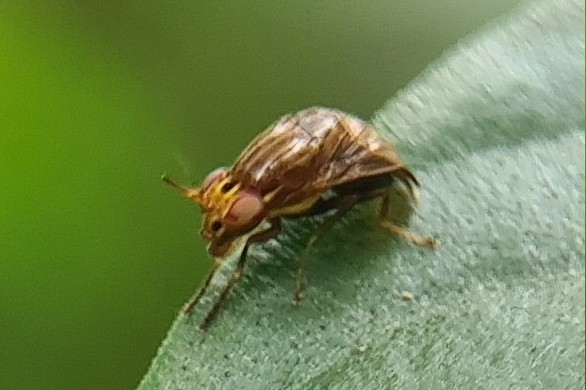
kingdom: Animalia
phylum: Arthropoda
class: Insecta
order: Diptera
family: Lauxaniidae
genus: Steganopsis
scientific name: Steganopsis melanogaster
